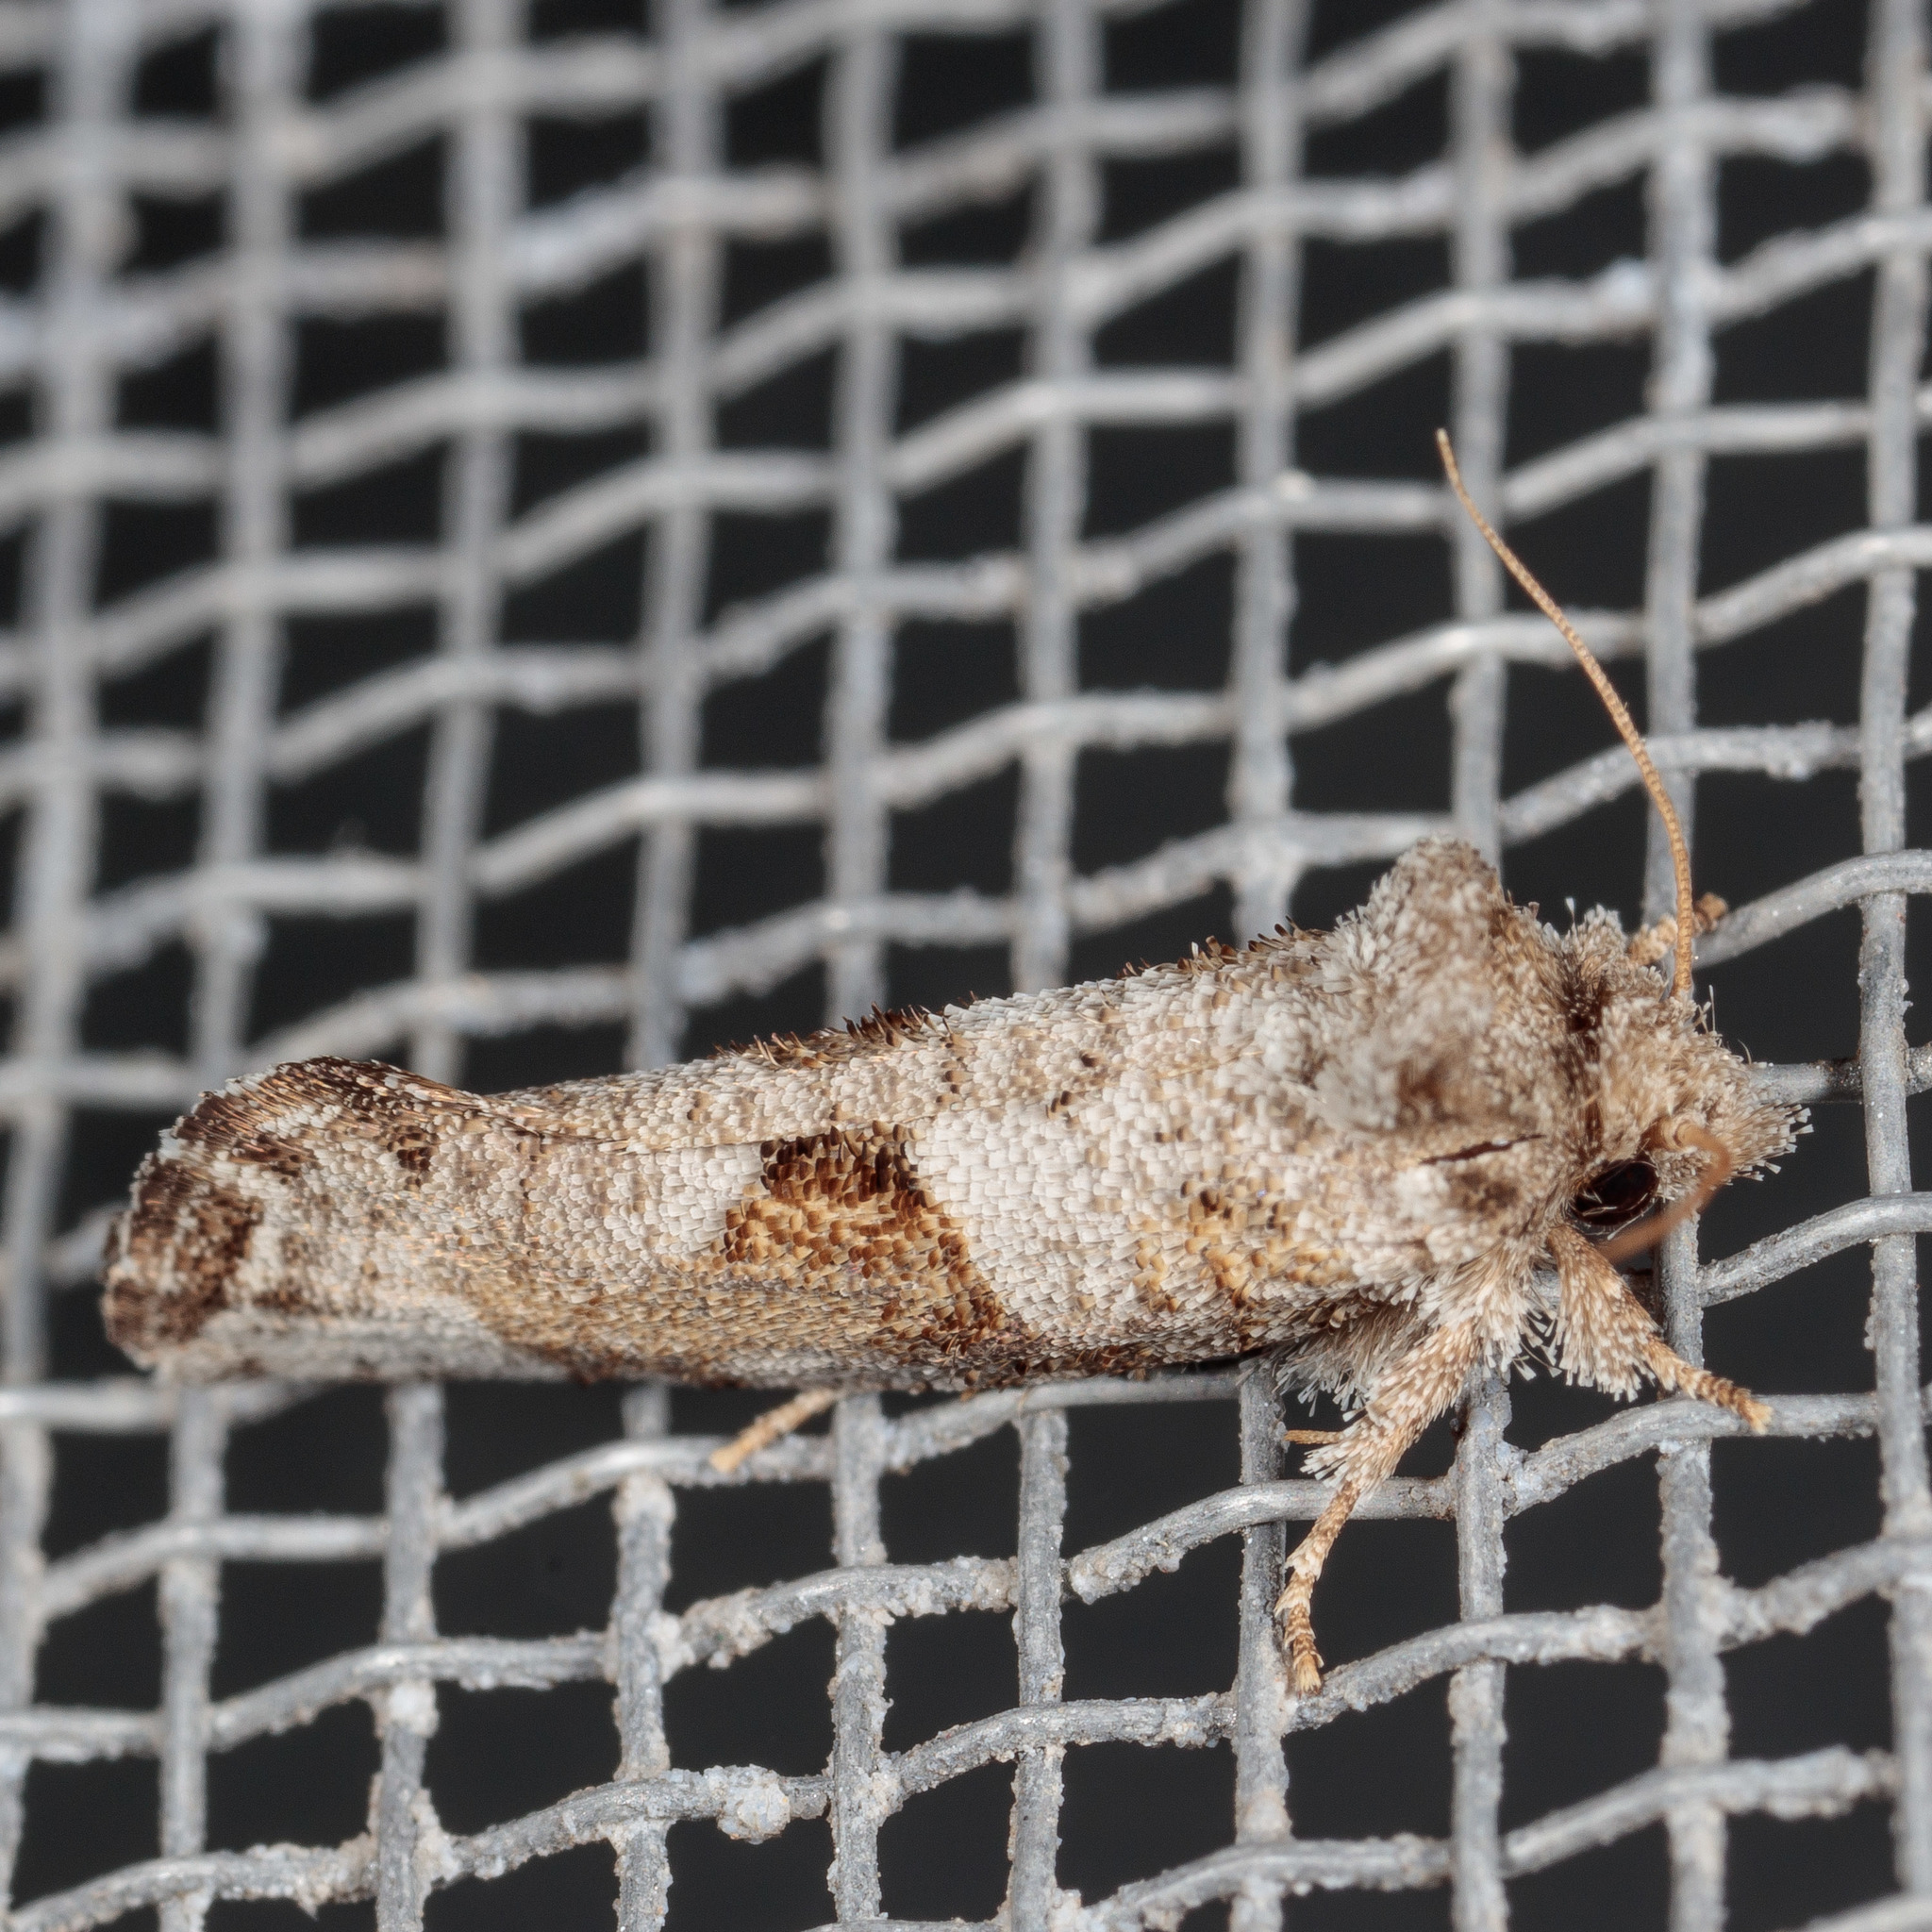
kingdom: Animalia
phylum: Arthropoda
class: Insecta
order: Lepidoptera
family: Tineidae
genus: Acrolophus
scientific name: Acrolophus piger
